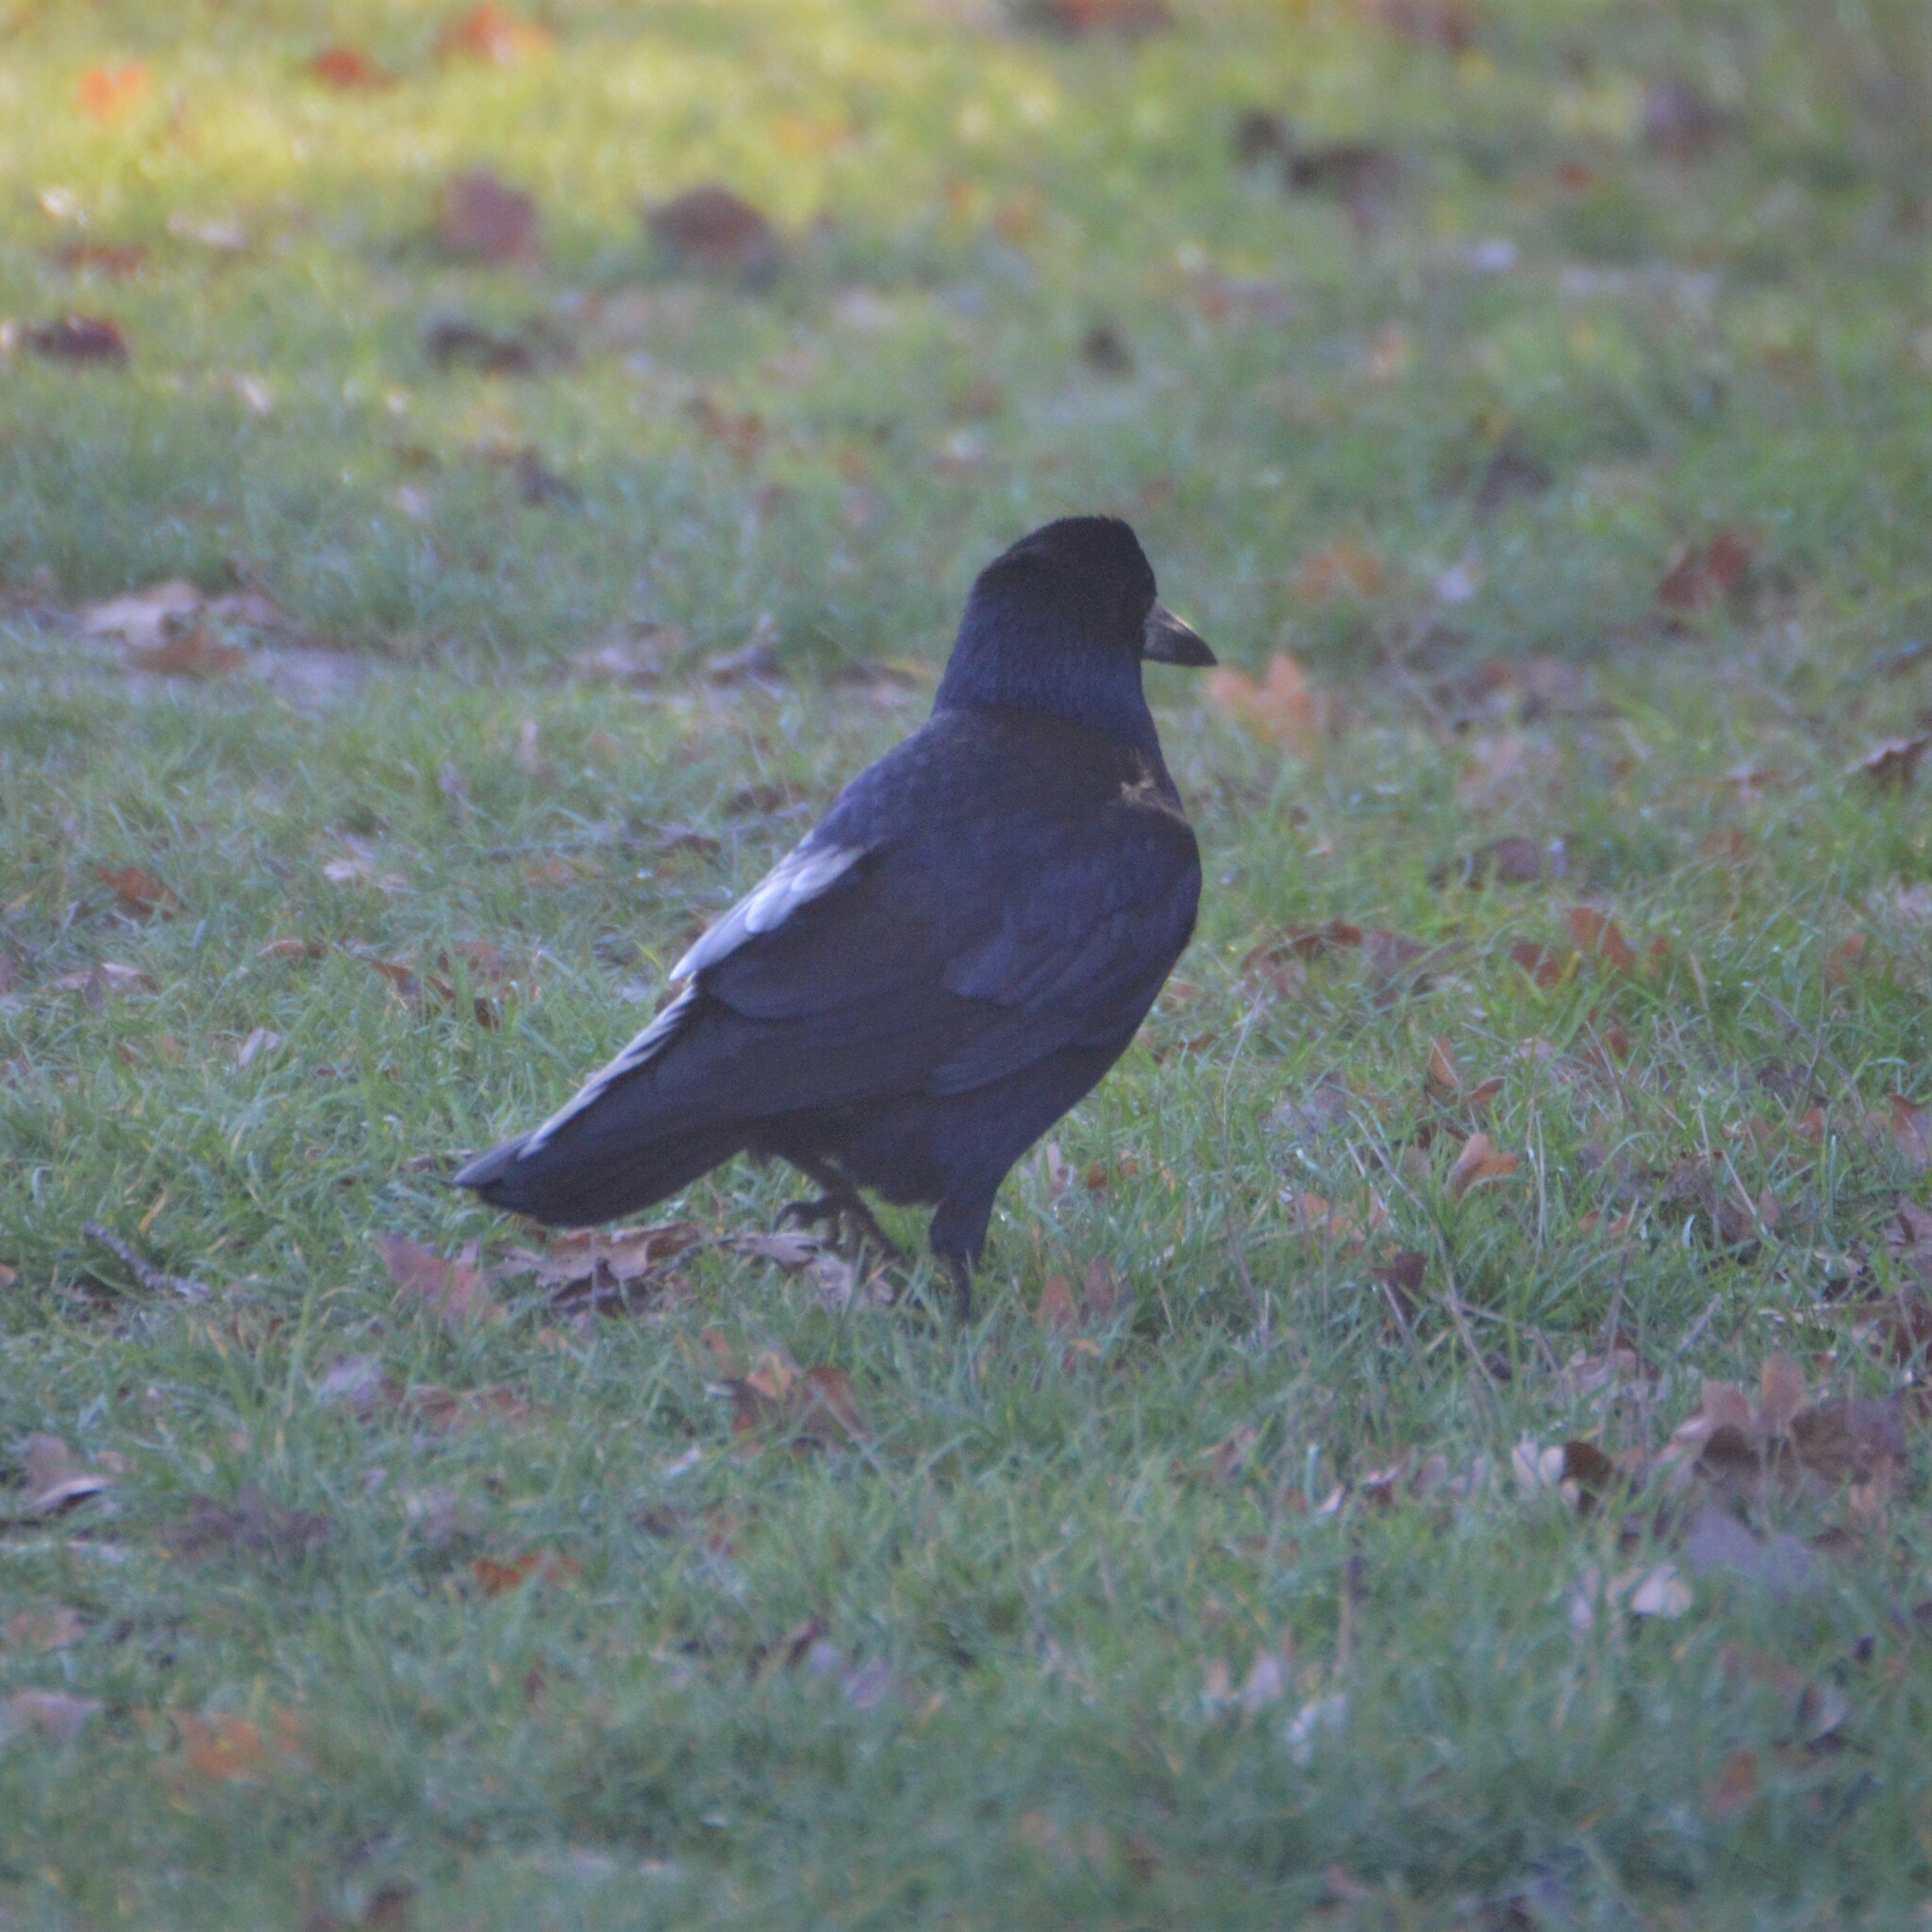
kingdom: Animalia
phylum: Chordata
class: Aves
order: Passeriformes
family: Corvidae
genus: Corvus
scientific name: Corvus frugilegus
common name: Rook
